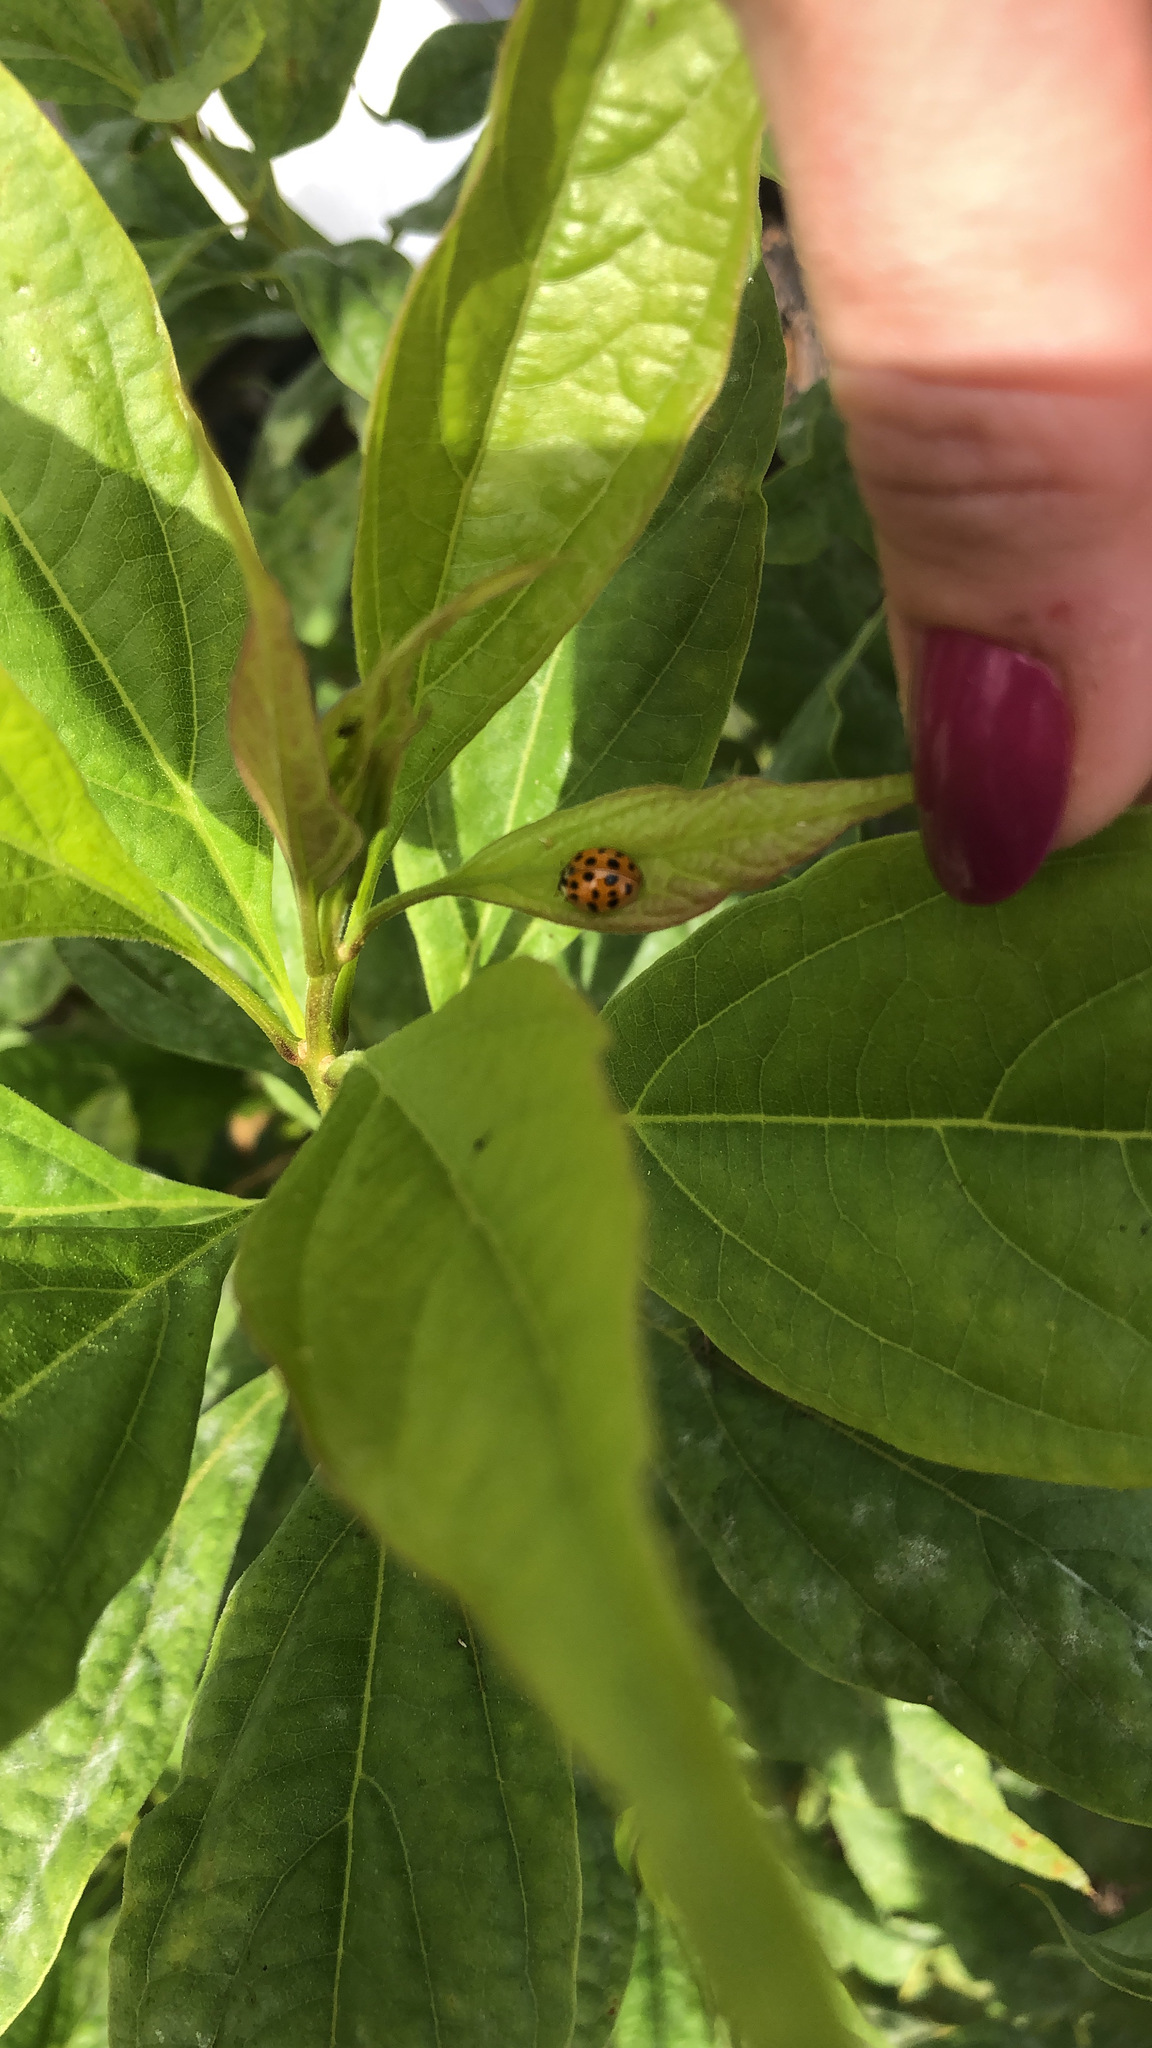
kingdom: Animalia
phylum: Arthropoda
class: Insecta
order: Coleoptera
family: Coccinellidae
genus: Harmonia
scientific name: Harmonia axyridis
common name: Harlequin ladybird
